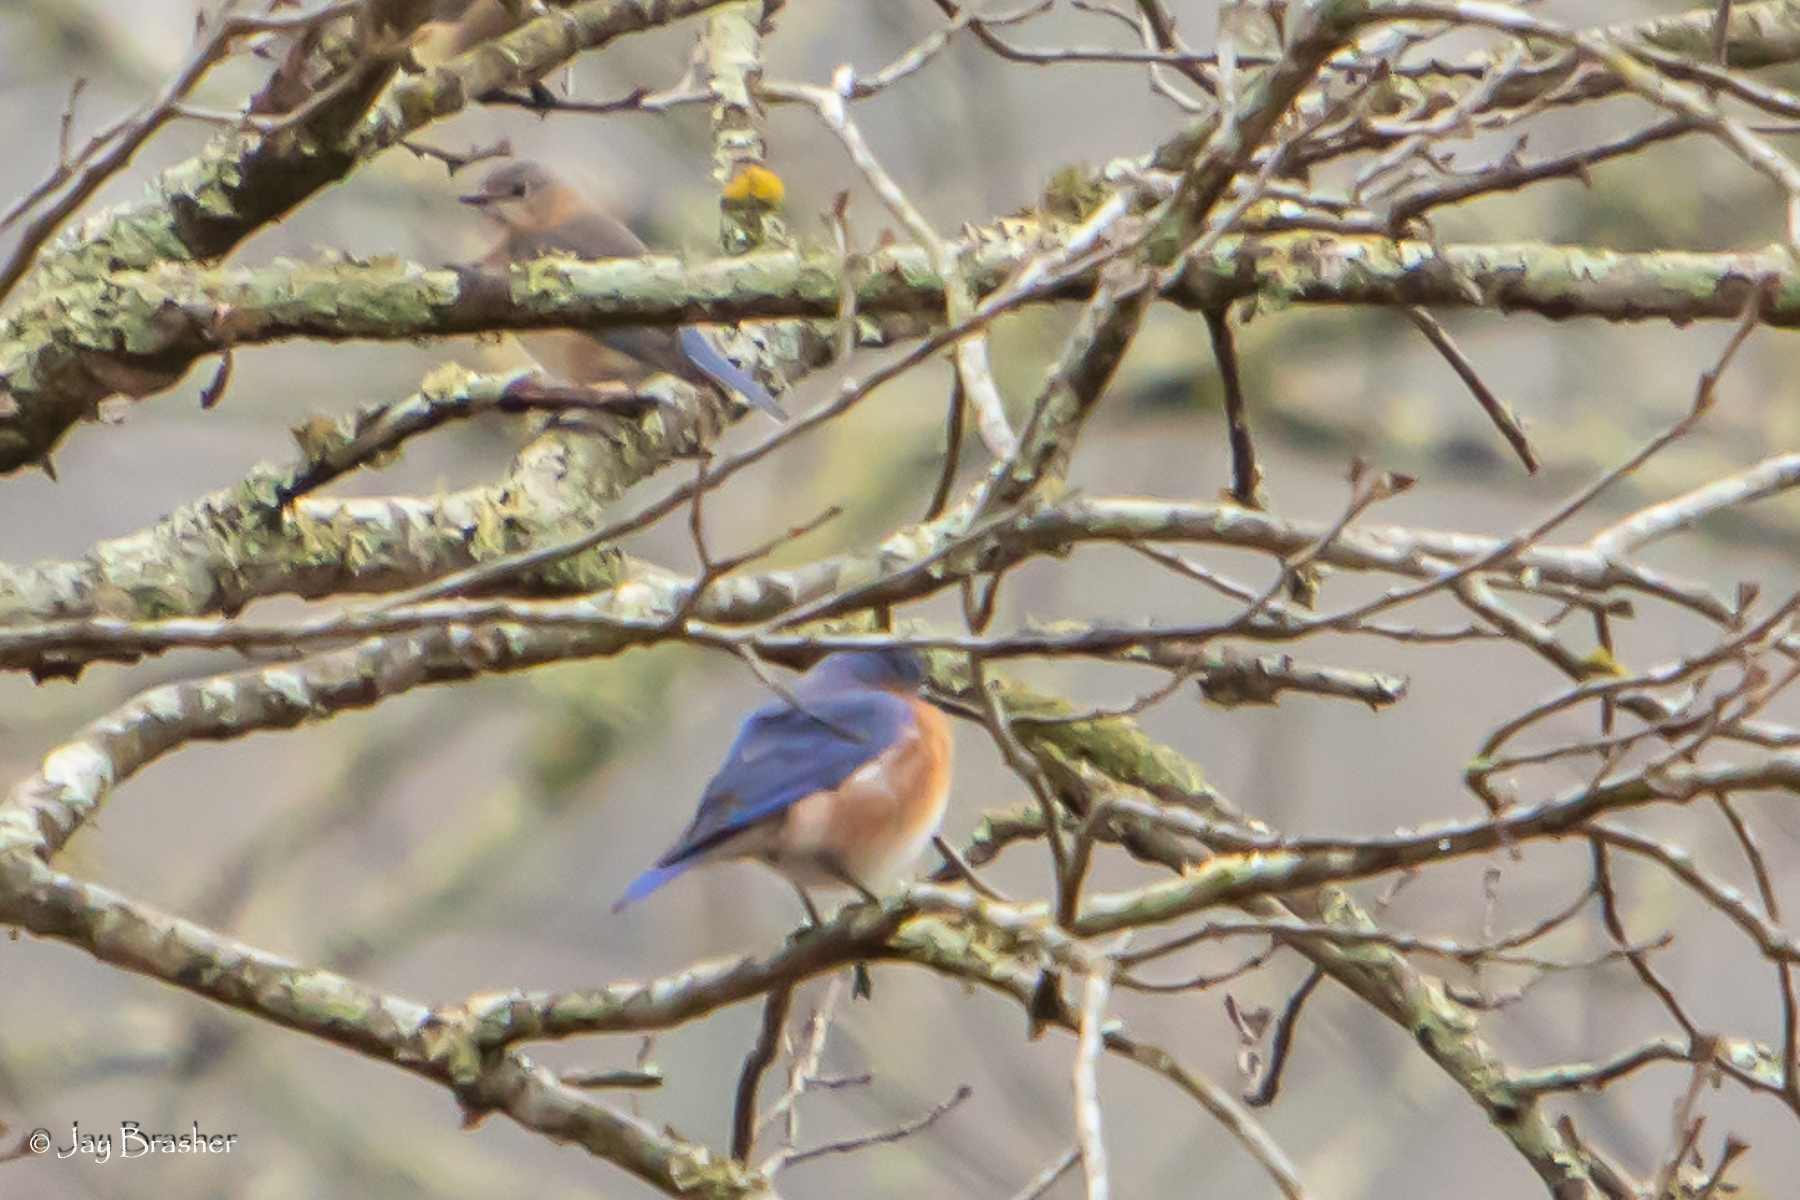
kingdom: Animalia
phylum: Chordata
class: Aves
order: Passeriformes
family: Turdidae
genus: Sialia
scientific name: Sialia sialis
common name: Eastern bluebird
